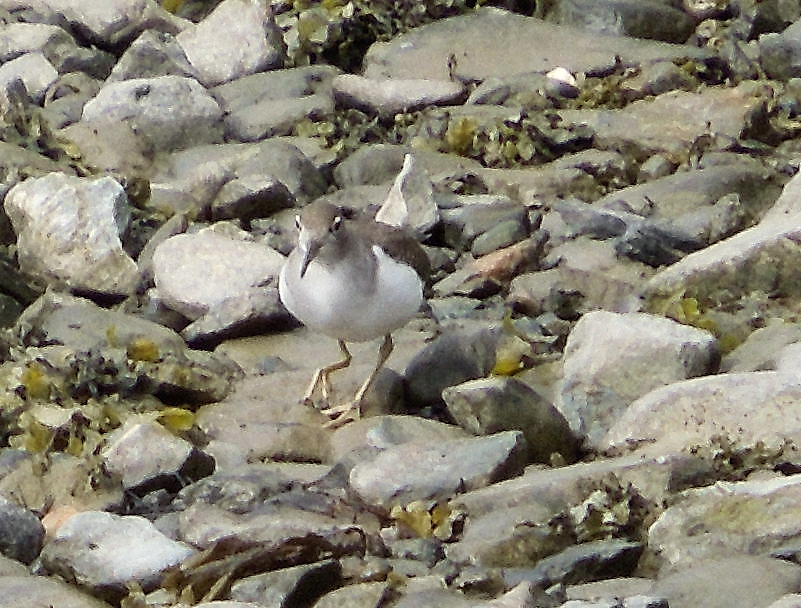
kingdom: Animalia
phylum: Chordata
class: Aves
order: Charadriiformes
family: Scolopacidae
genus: Actitis
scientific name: Actitis macularius
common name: Spotted sandpiper
